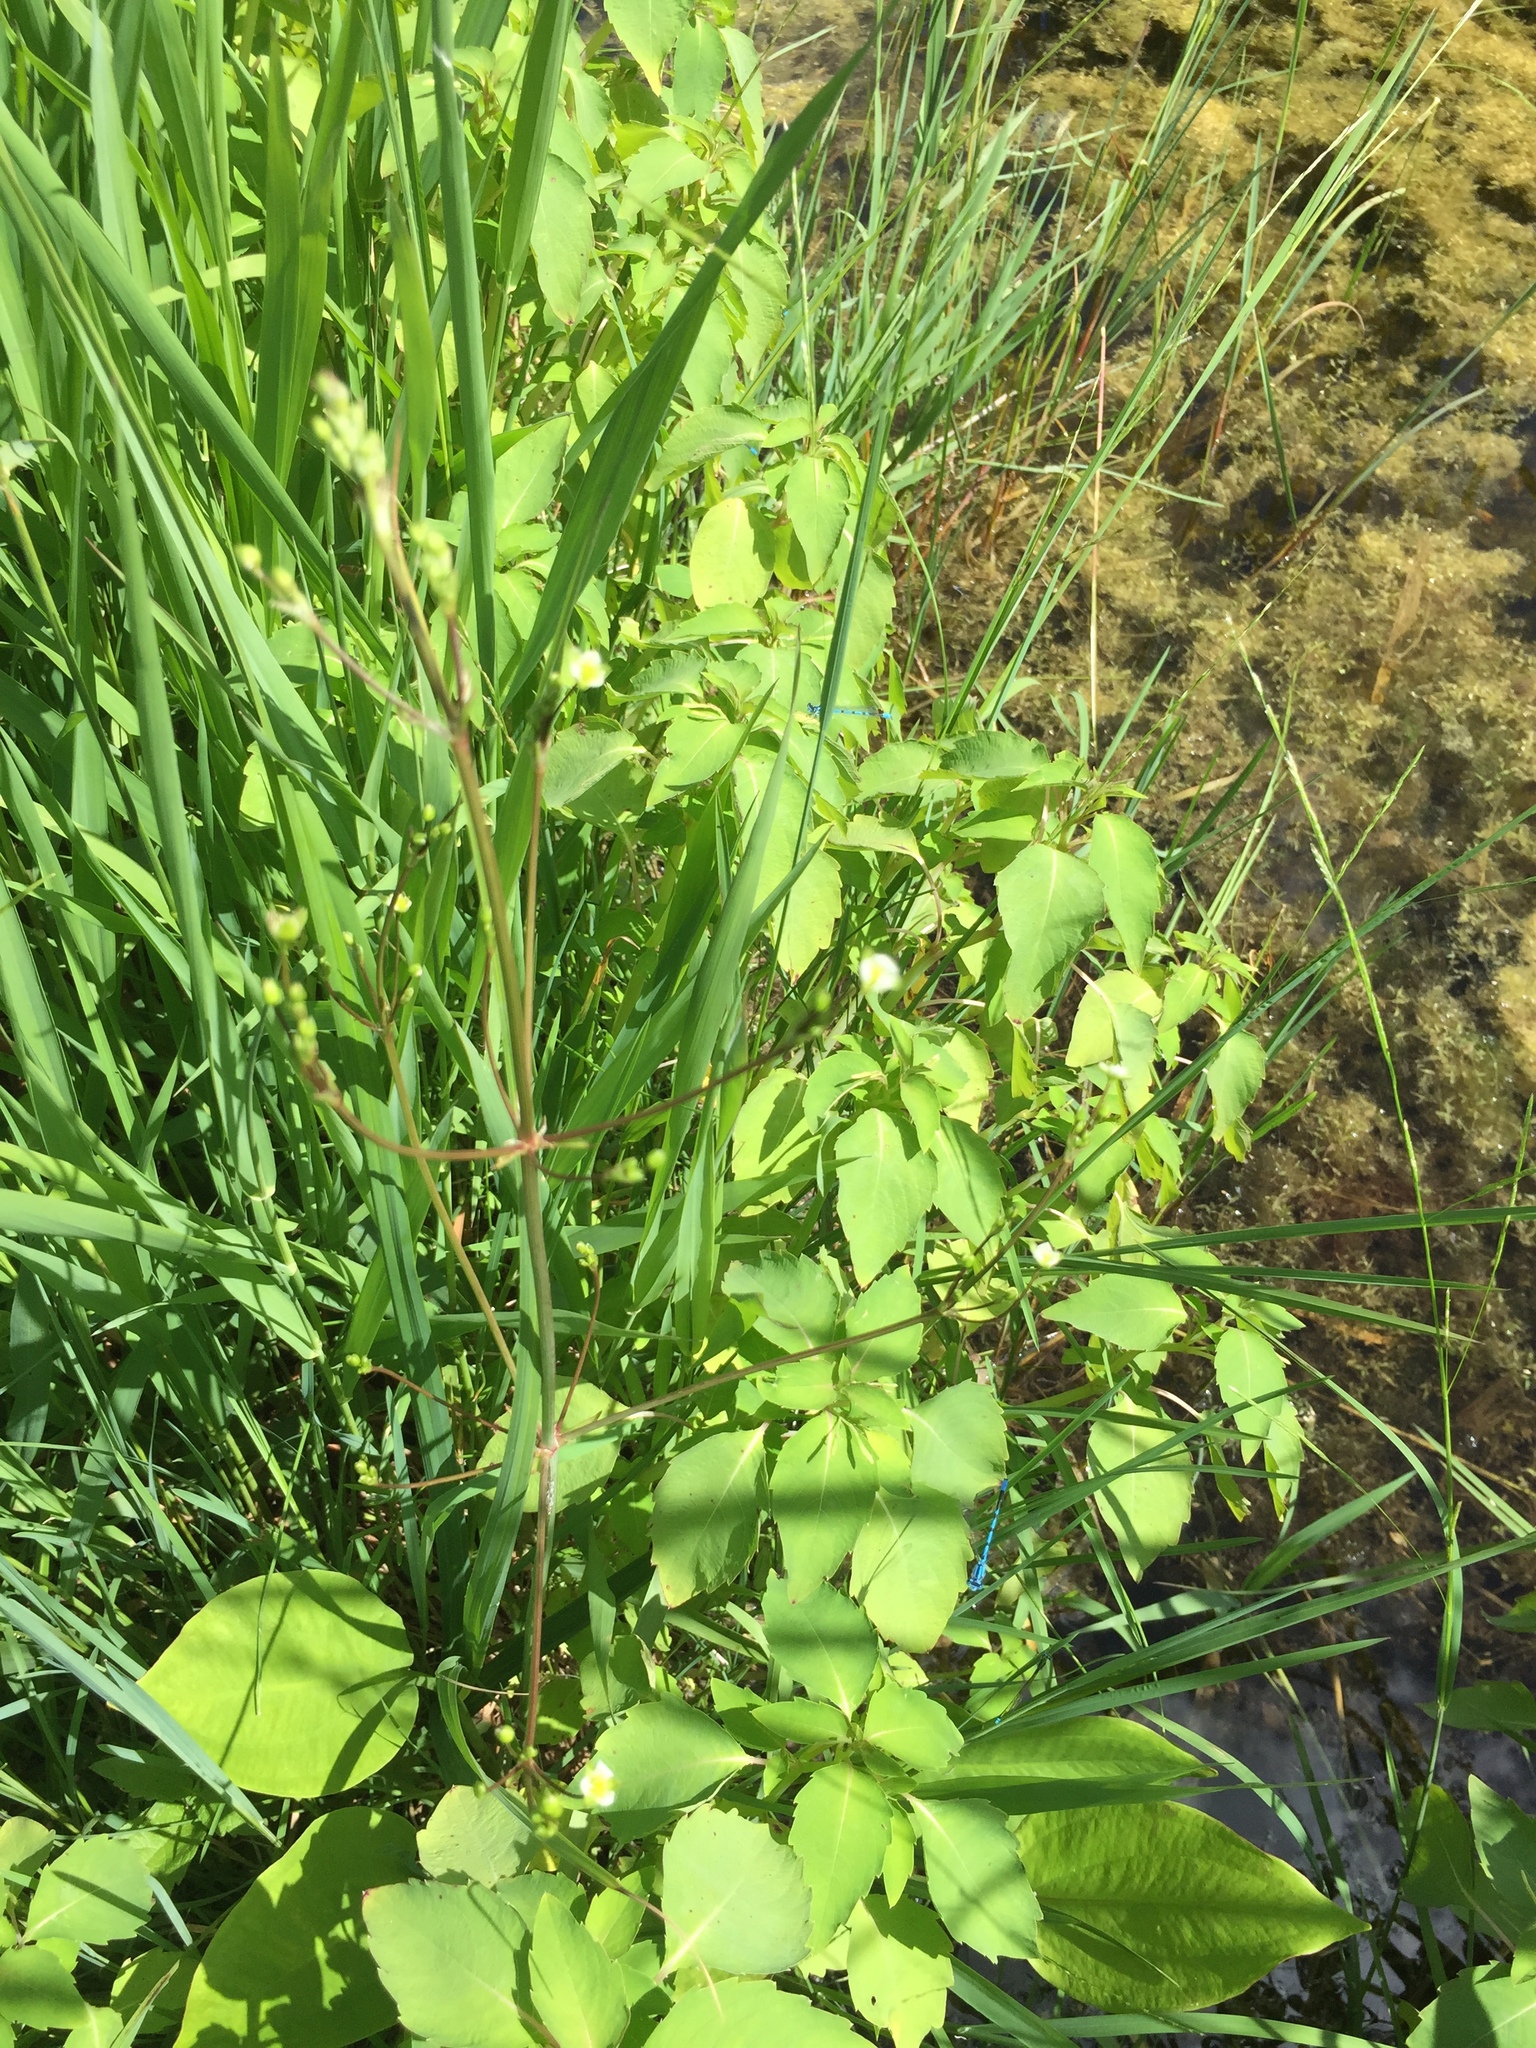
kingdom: Plantae
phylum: Tracheophyta
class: Liliopsida
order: Alismatales
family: Alismataceae
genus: Alisma
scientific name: Alisma triviale
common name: Northern water-plantain
